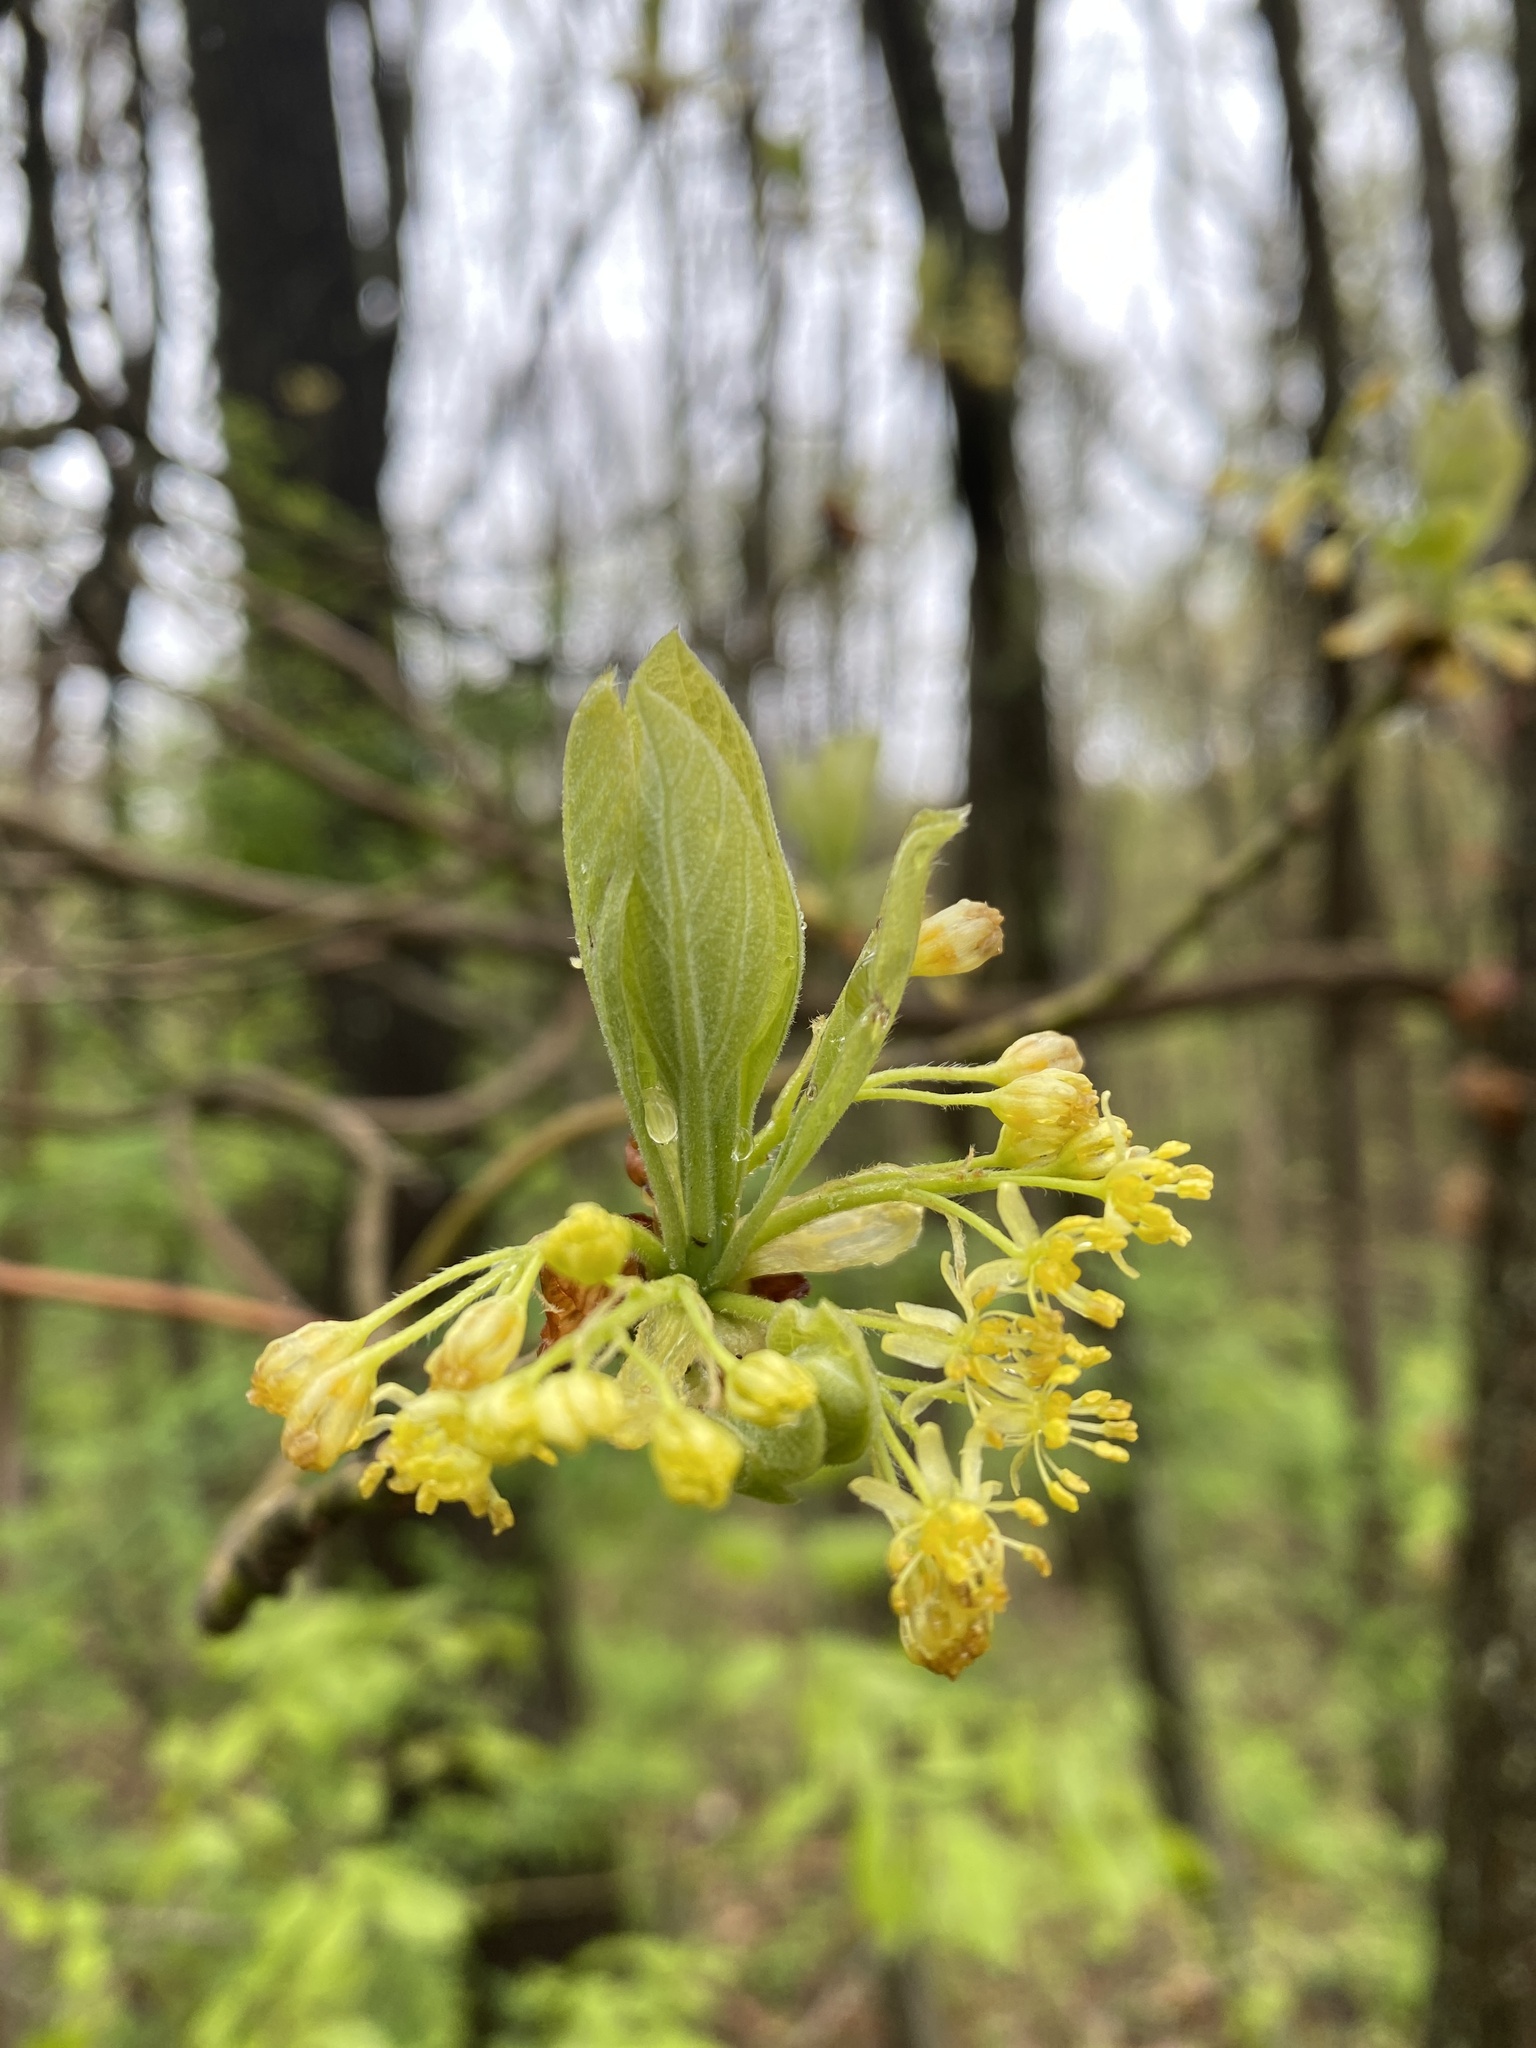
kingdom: Plantae
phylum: Tracheophyta
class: Magnoliopsida
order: Laurales
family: Lauraceae
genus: Sassafras
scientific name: Sassafras albidum
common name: Sassafras
